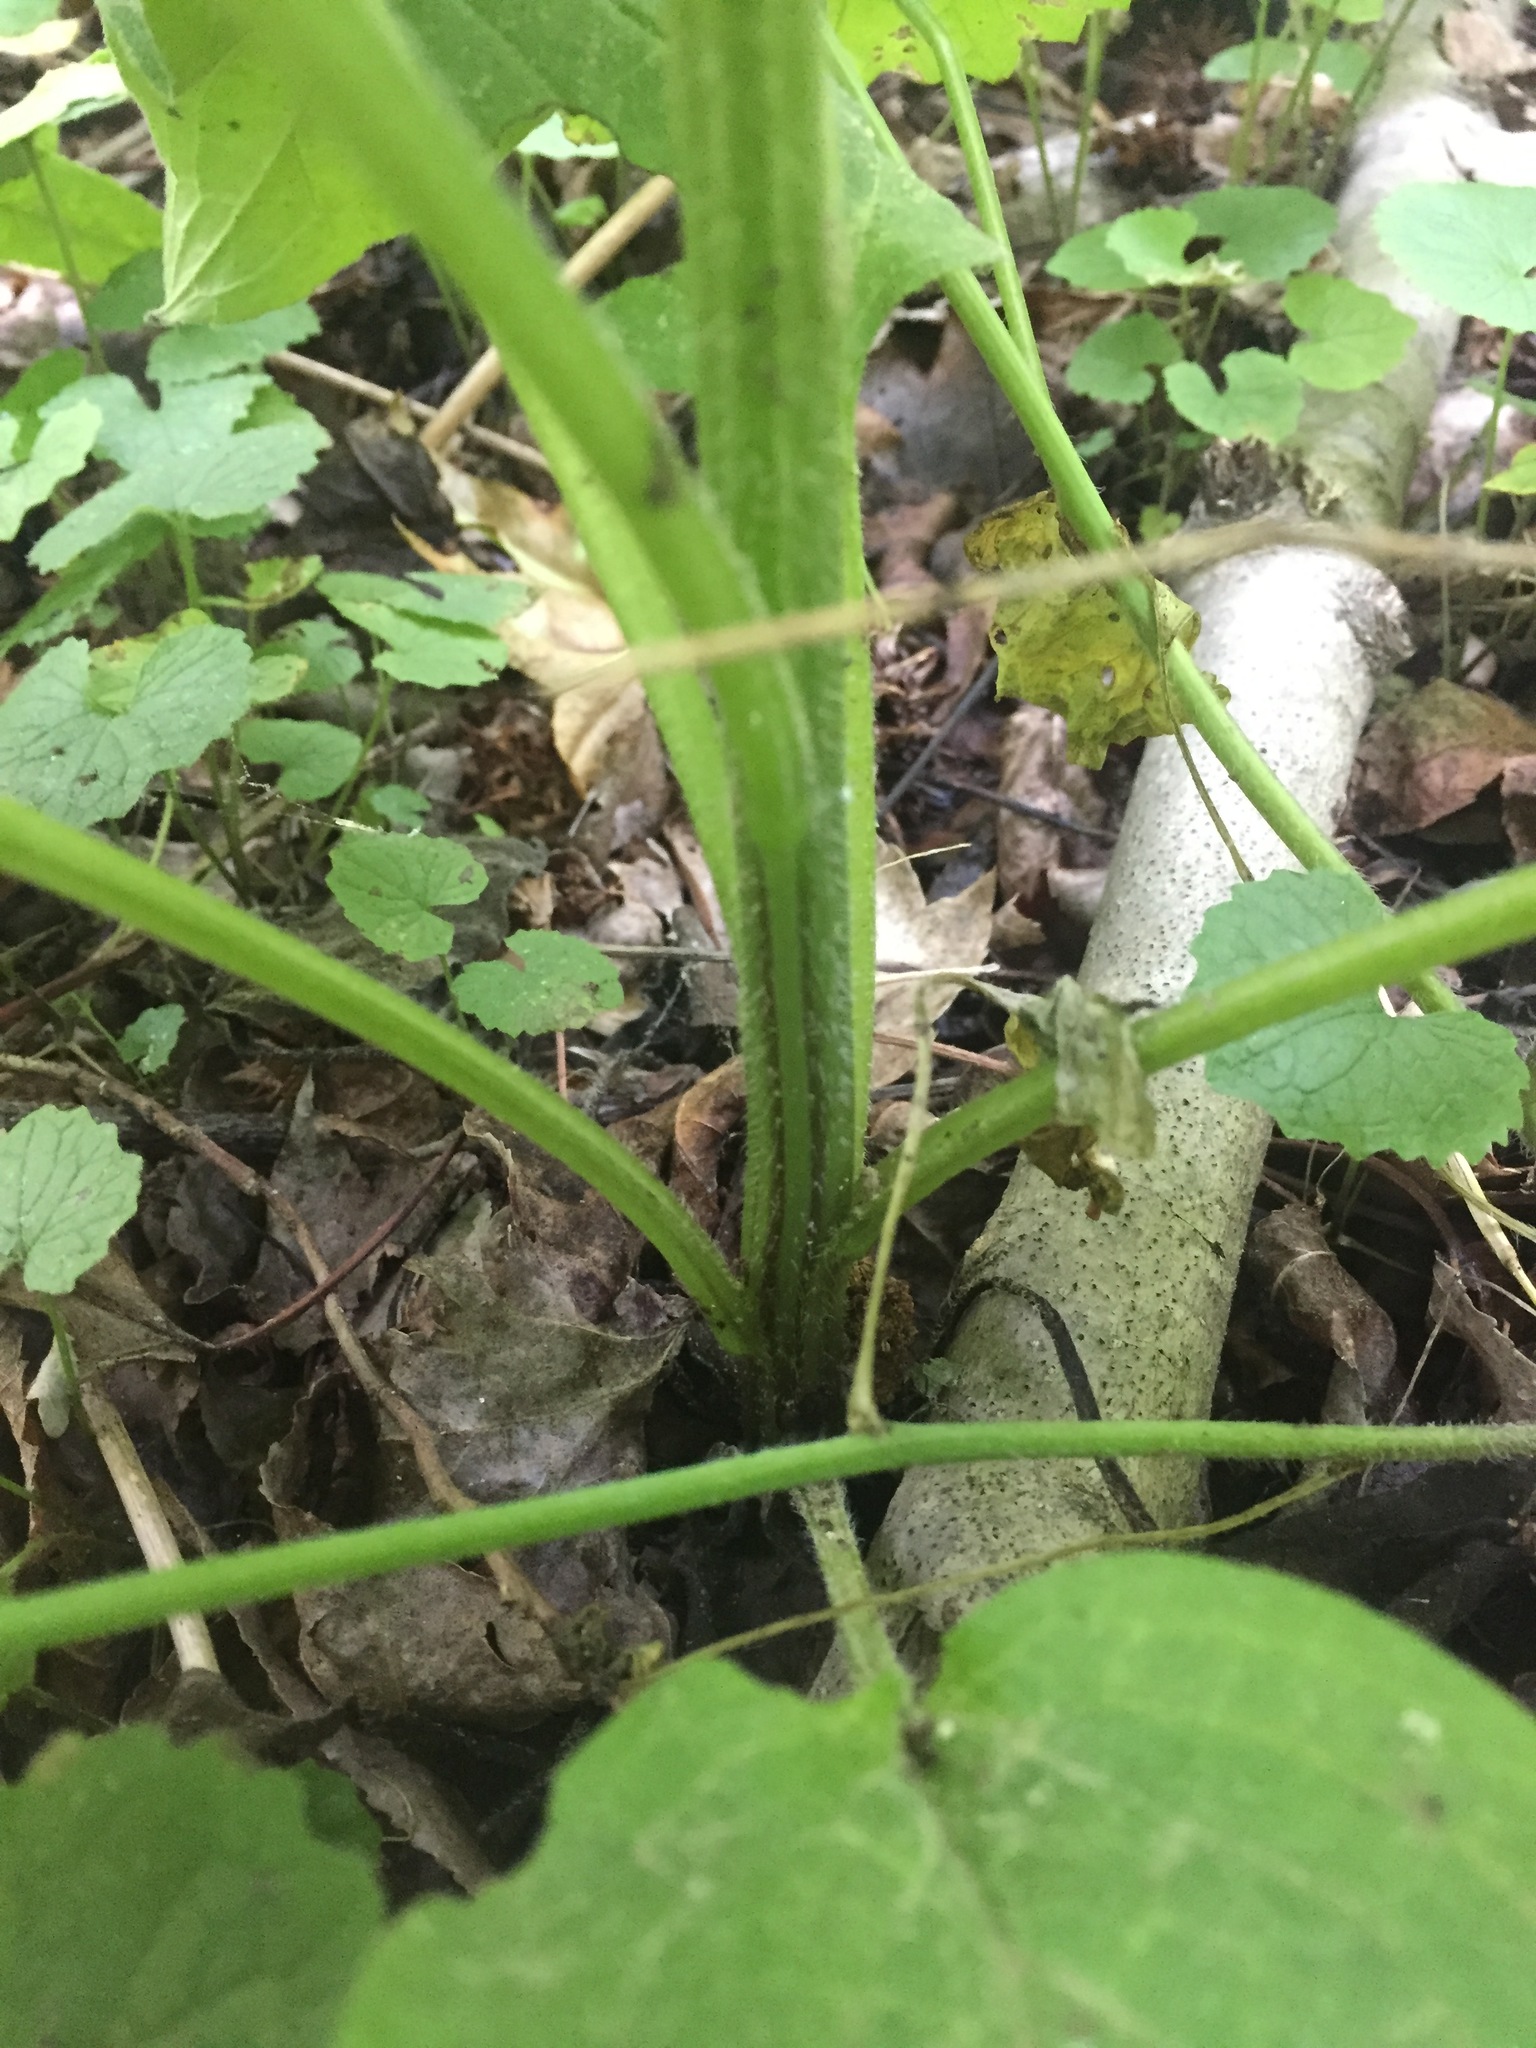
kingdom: Plantae
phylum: Tracheophyta
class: Magnoliopsida
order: Boraginales
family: Boraginaceae
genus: Hackelia
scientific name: Hackelia virginiana
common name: Beggar's-lice
